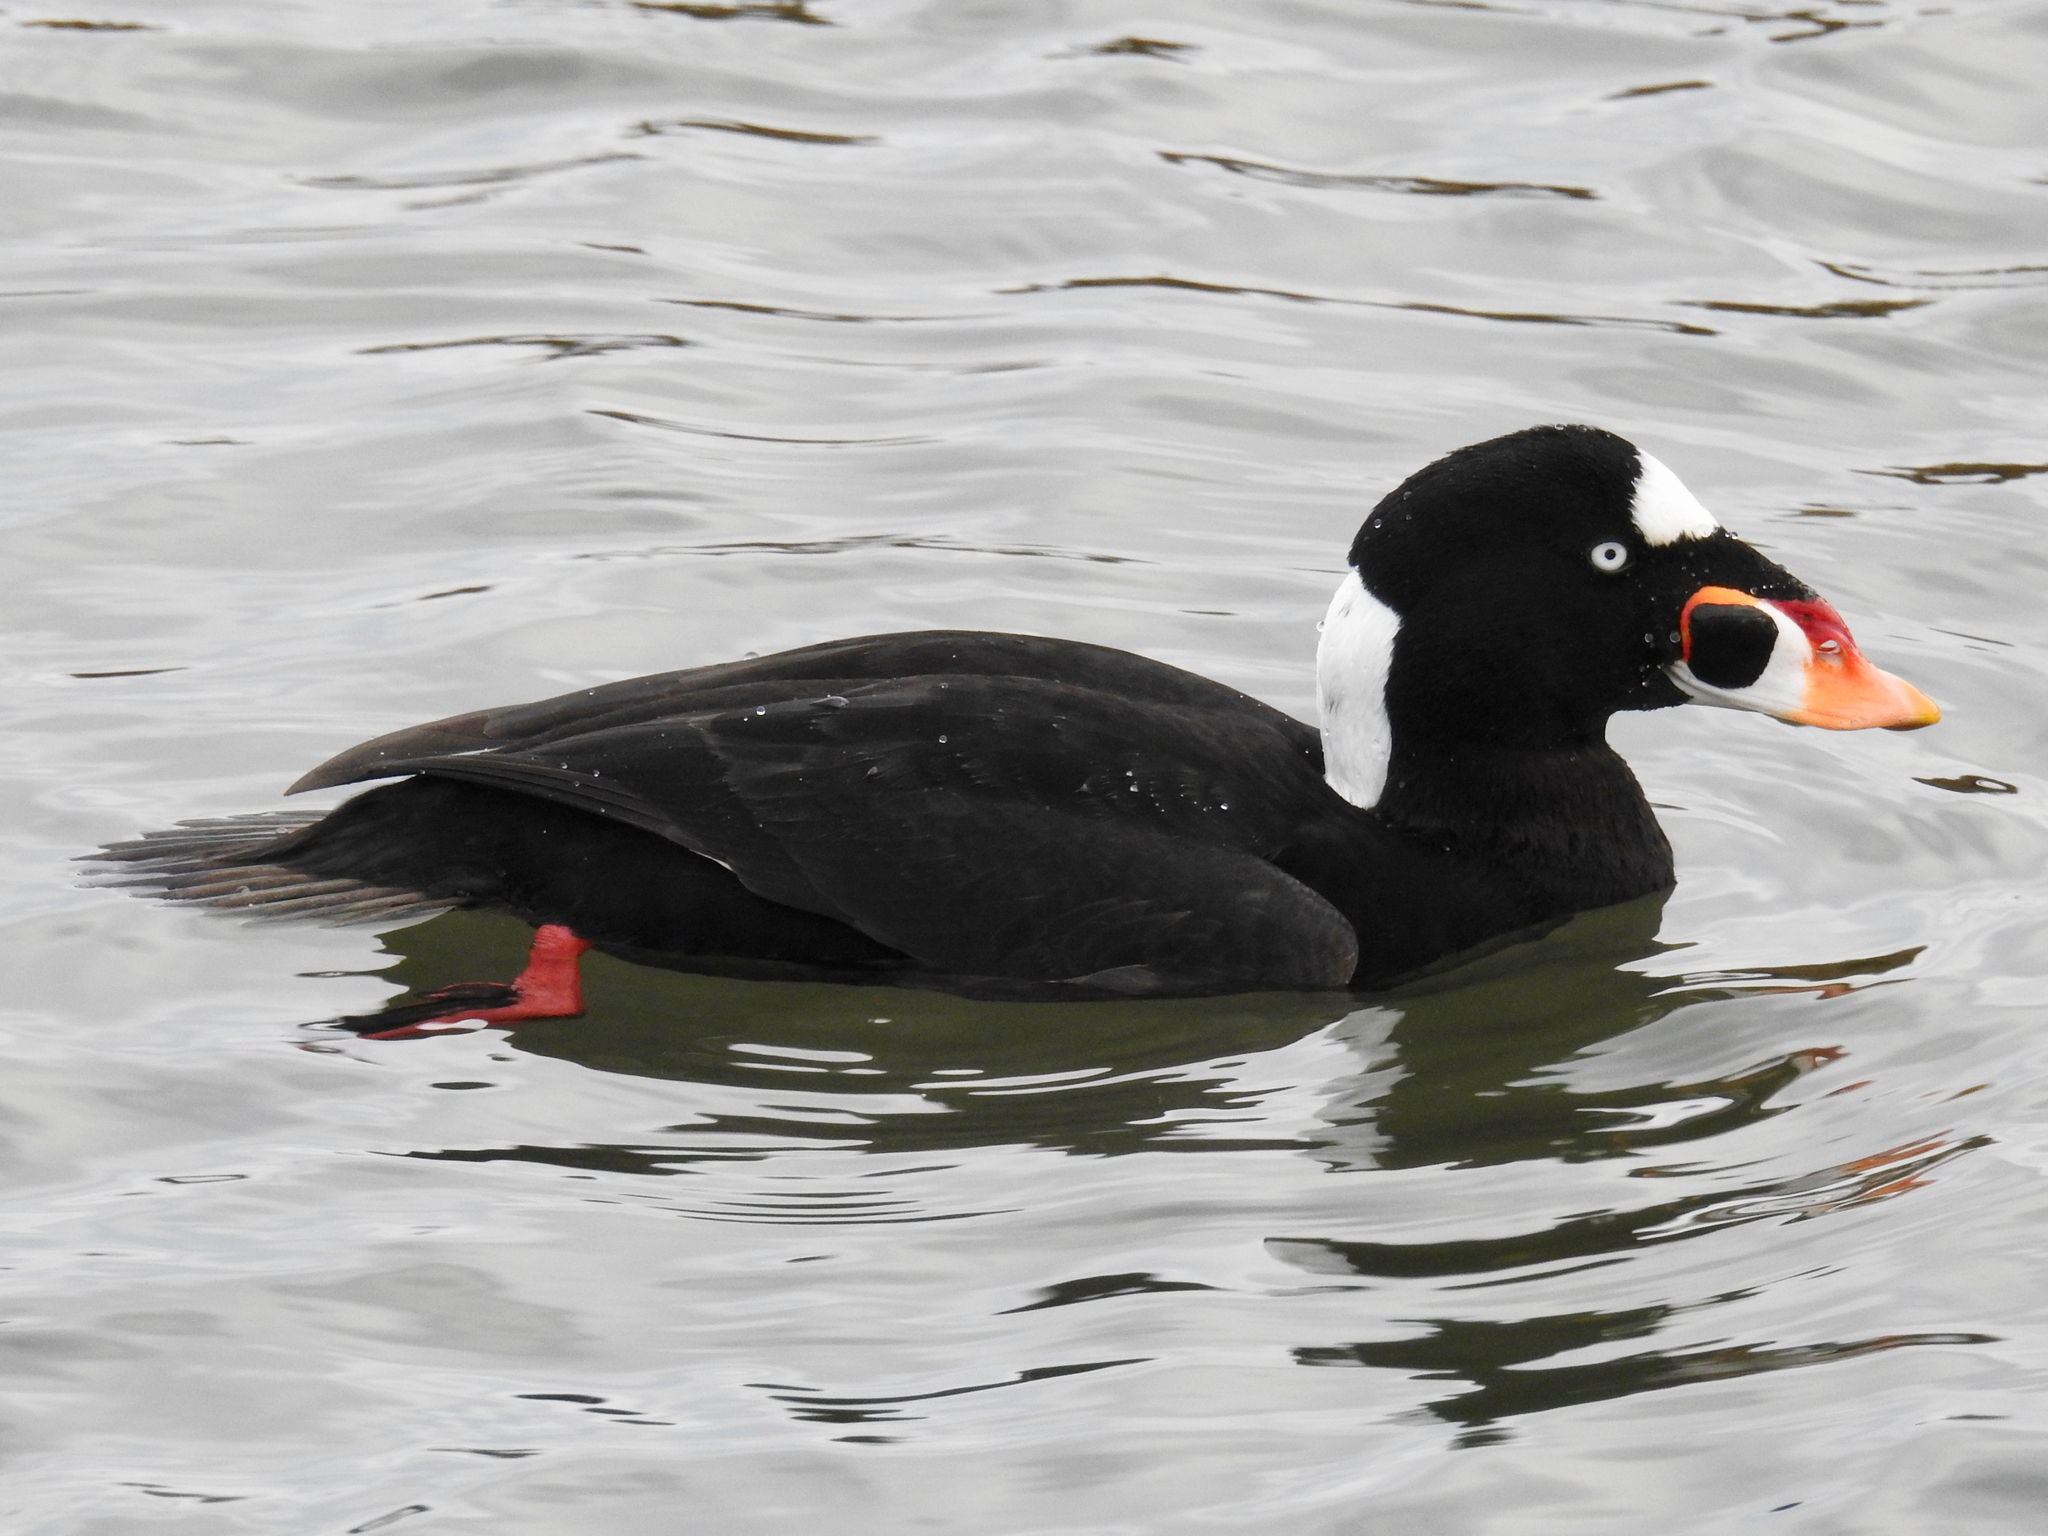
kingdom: Animalia
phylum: Chordata
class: Aves
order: Anseriformes
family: Anatidae
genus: Melanitta
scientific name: Melanitta perspicillata
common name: Surf scoter
